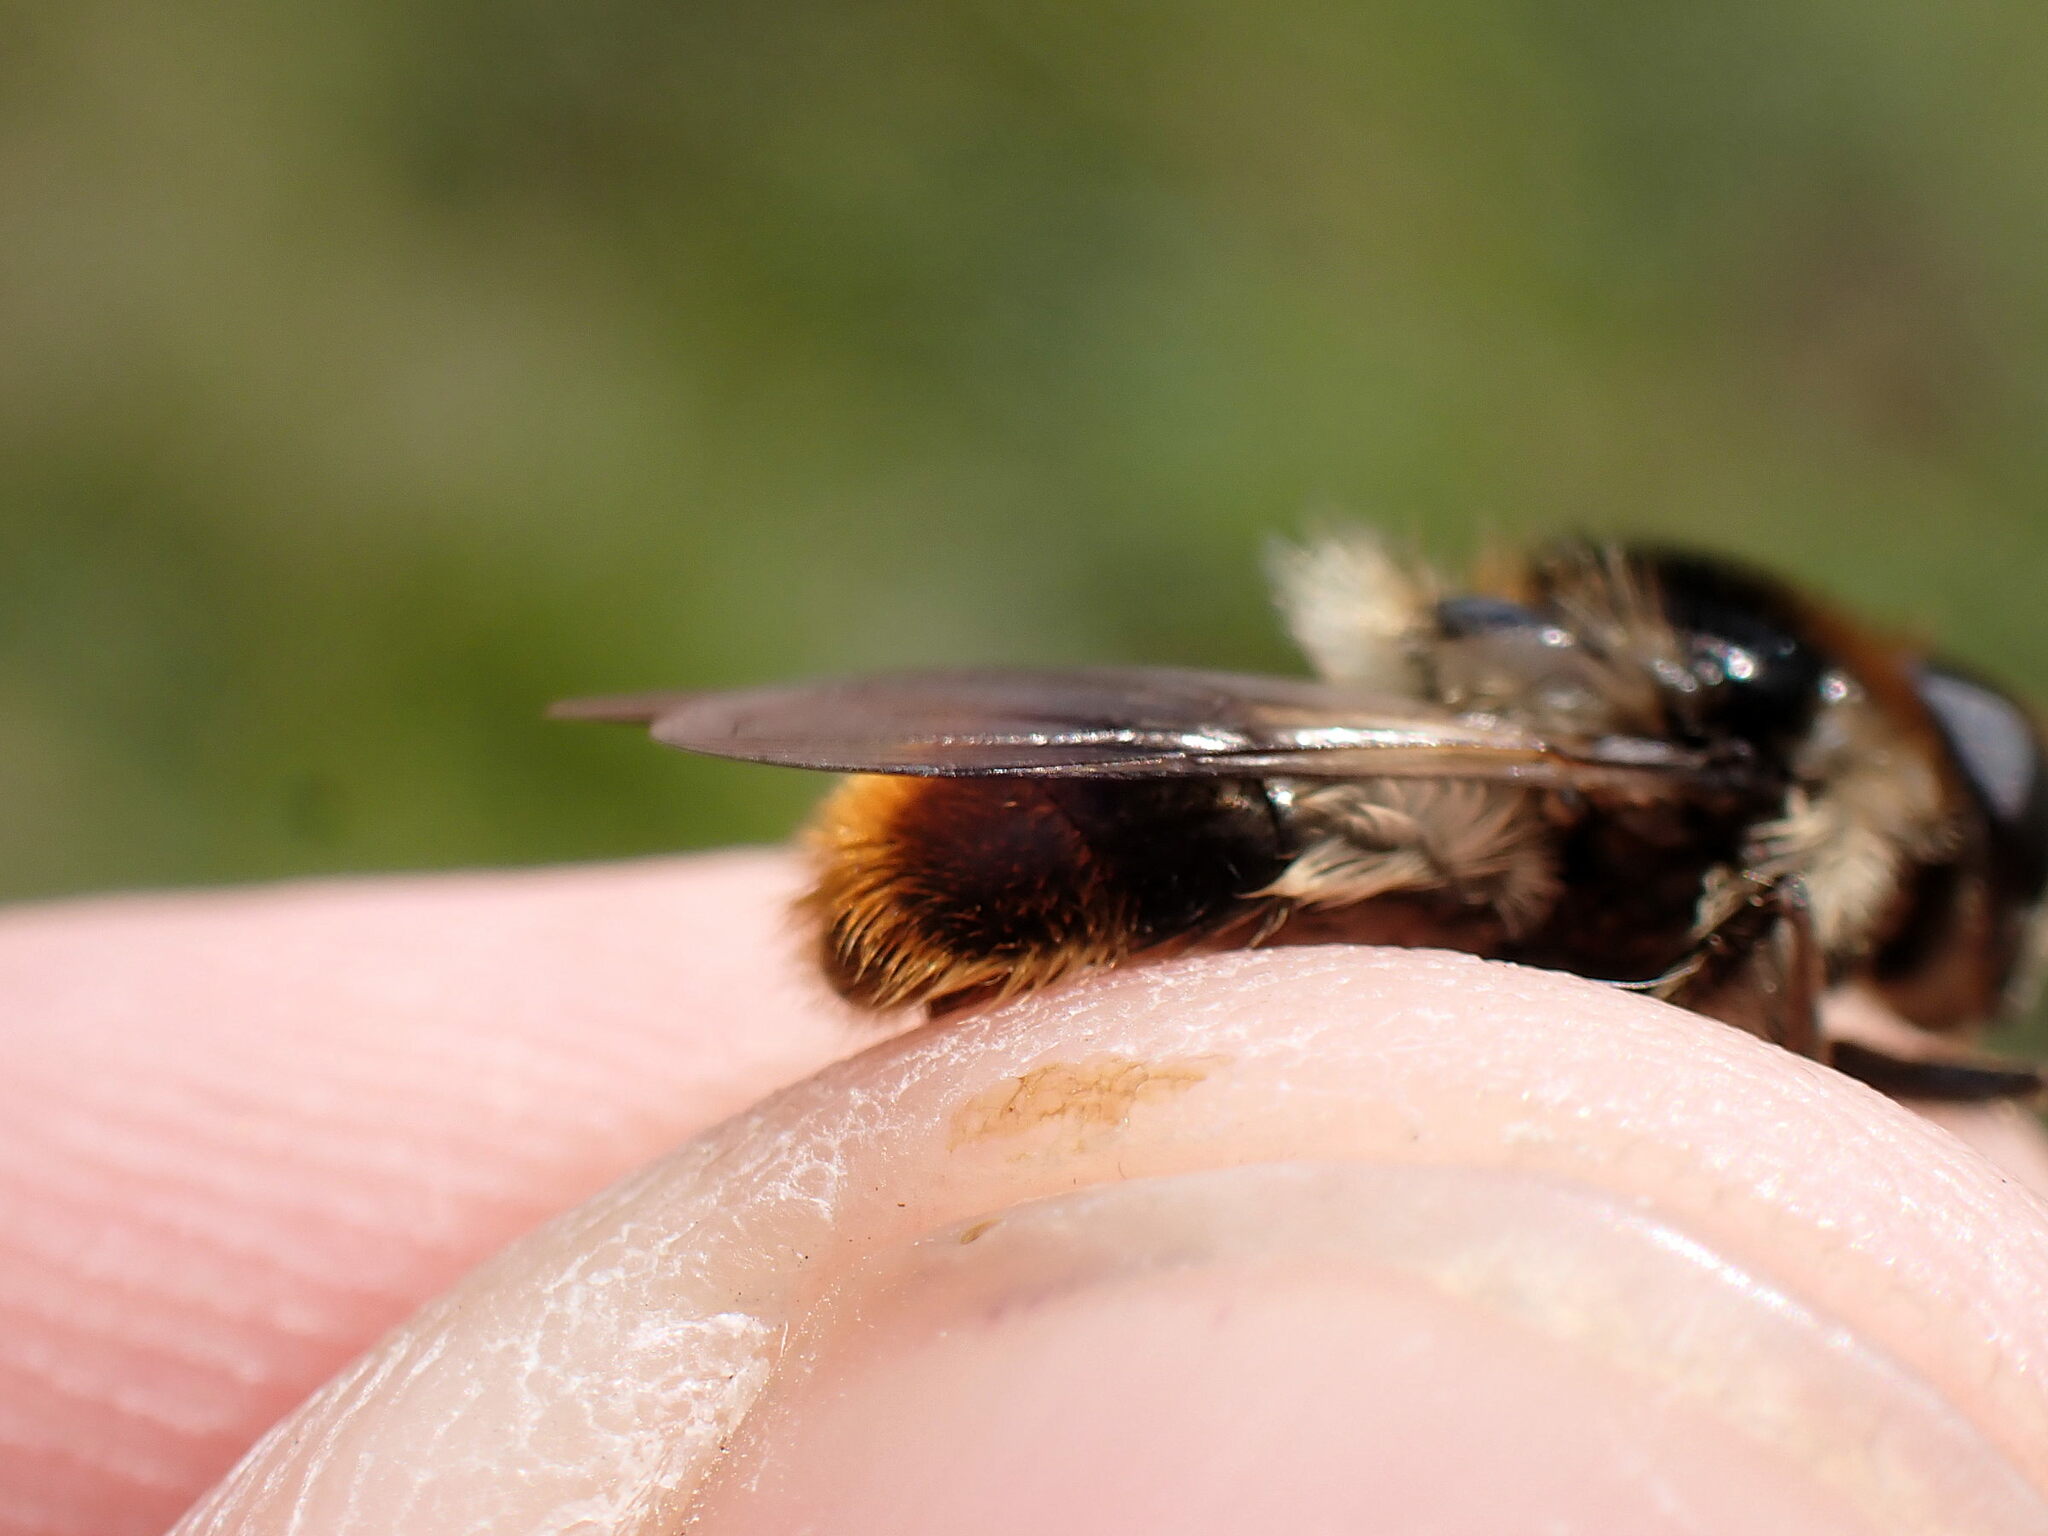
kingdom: Animalia
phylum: Arthropoda
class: Insecta
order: Diptera
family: Syrphidae
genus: Cheilosia
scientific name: Cheilosia illustrata
